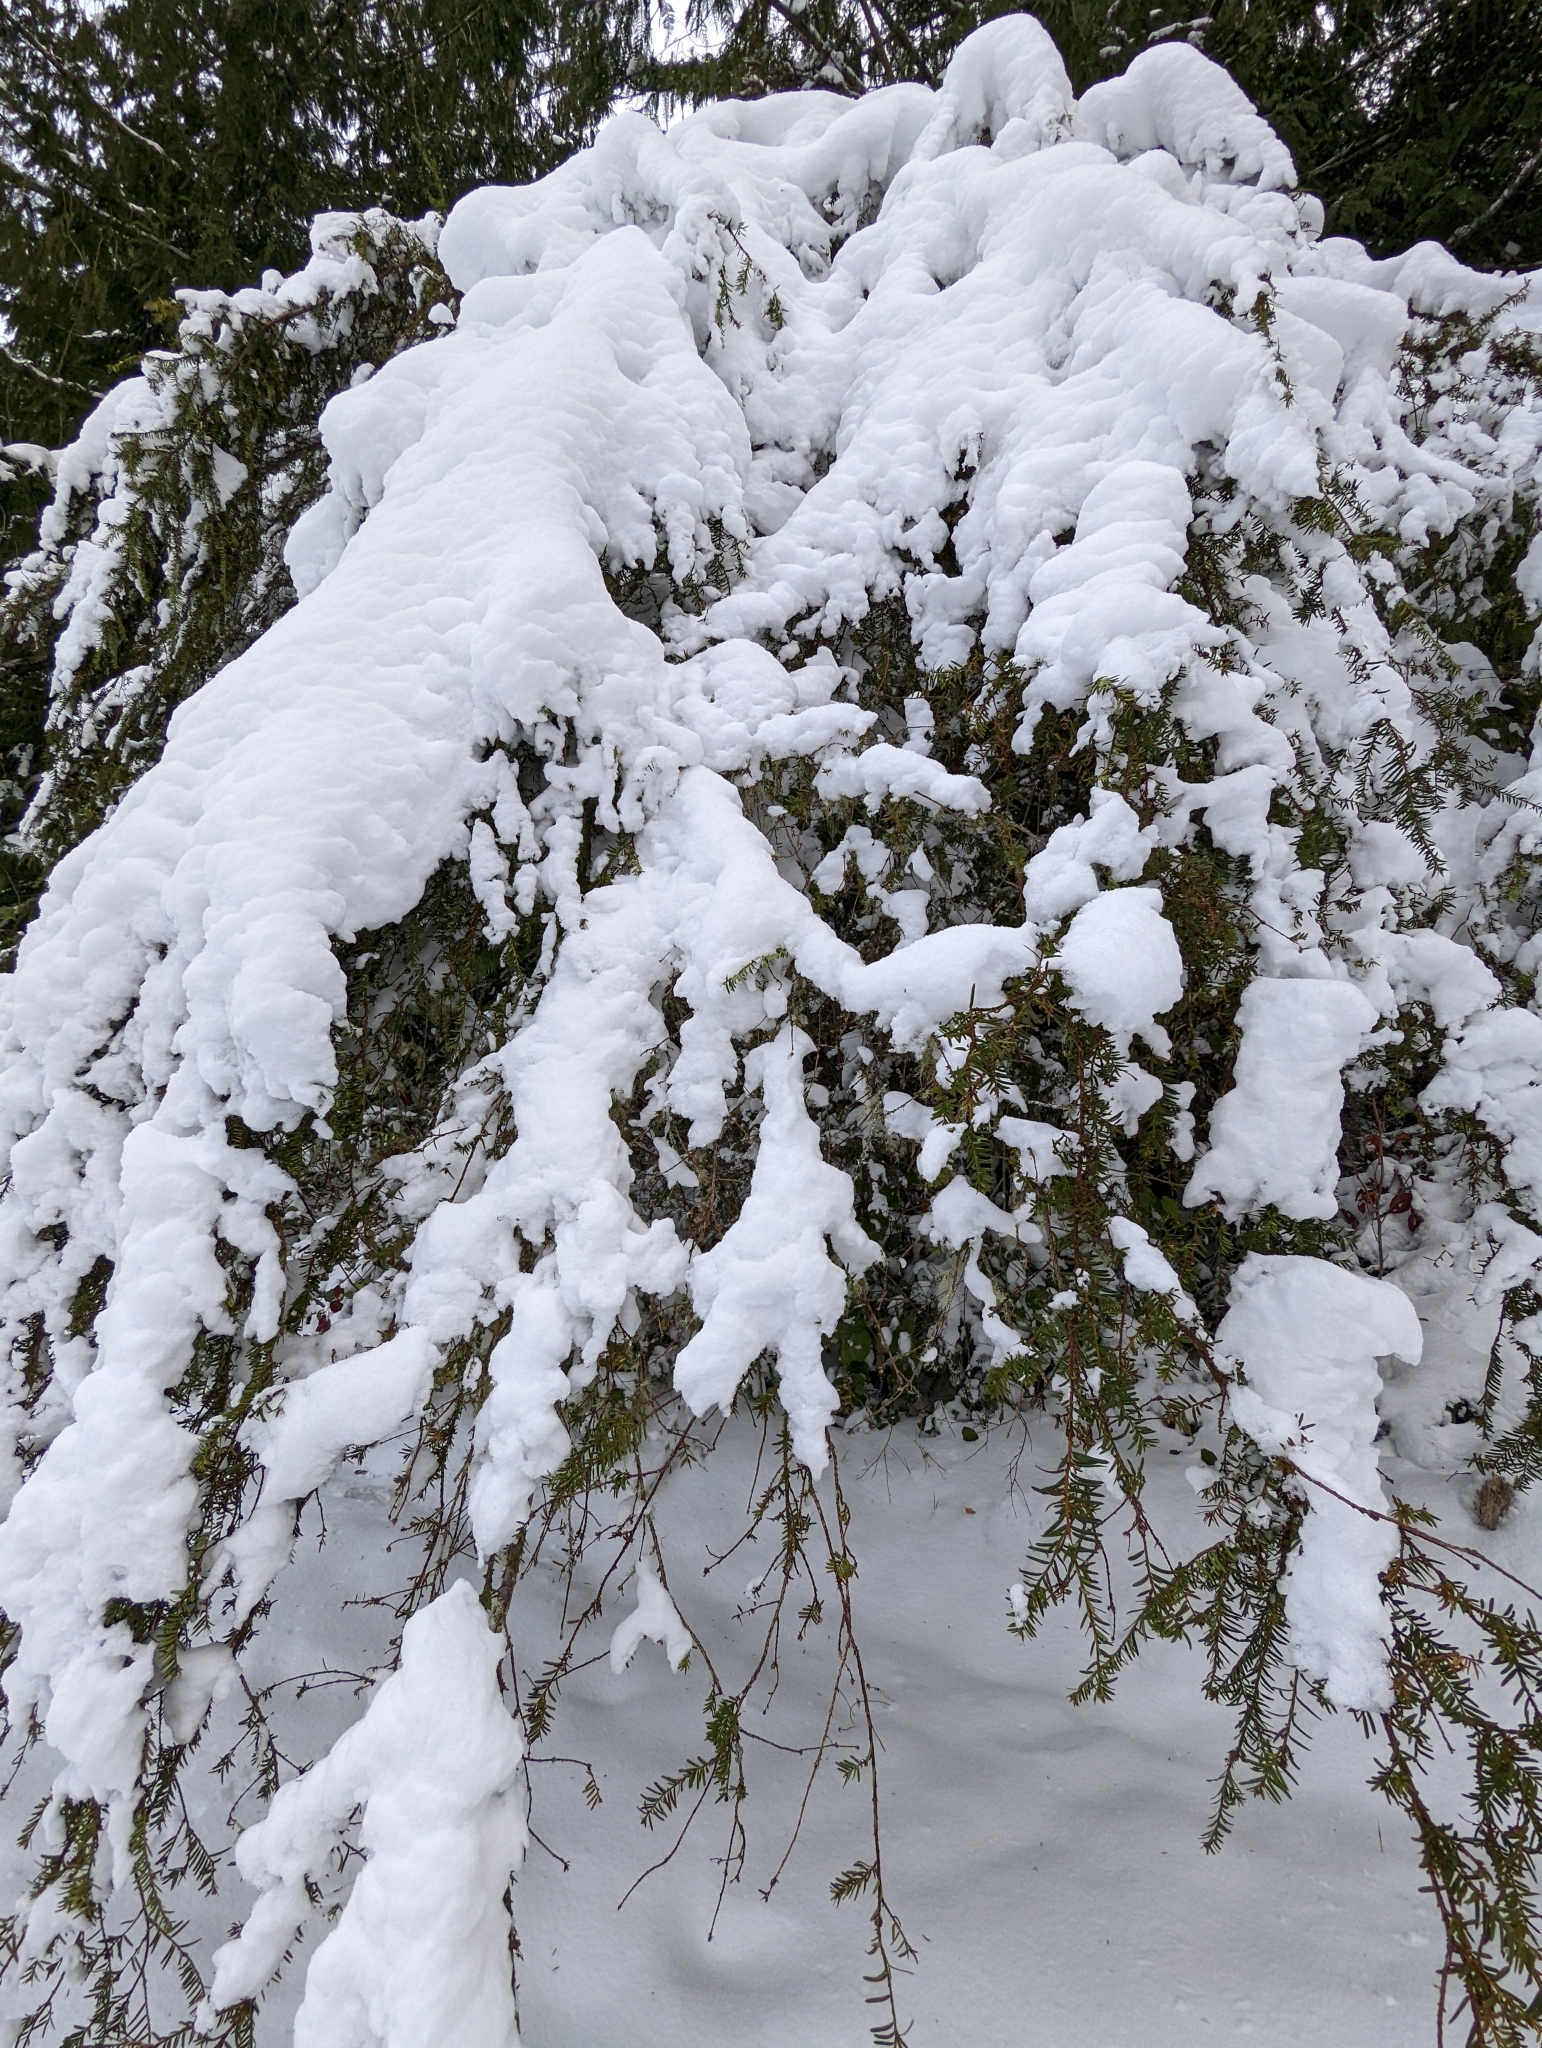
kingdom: Plantae
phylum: Tracheophyta
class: Pinopsida
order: Pinales
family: Taxaceae
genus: Taxus
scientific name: Taxus brevifolia
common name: Pacific yew
